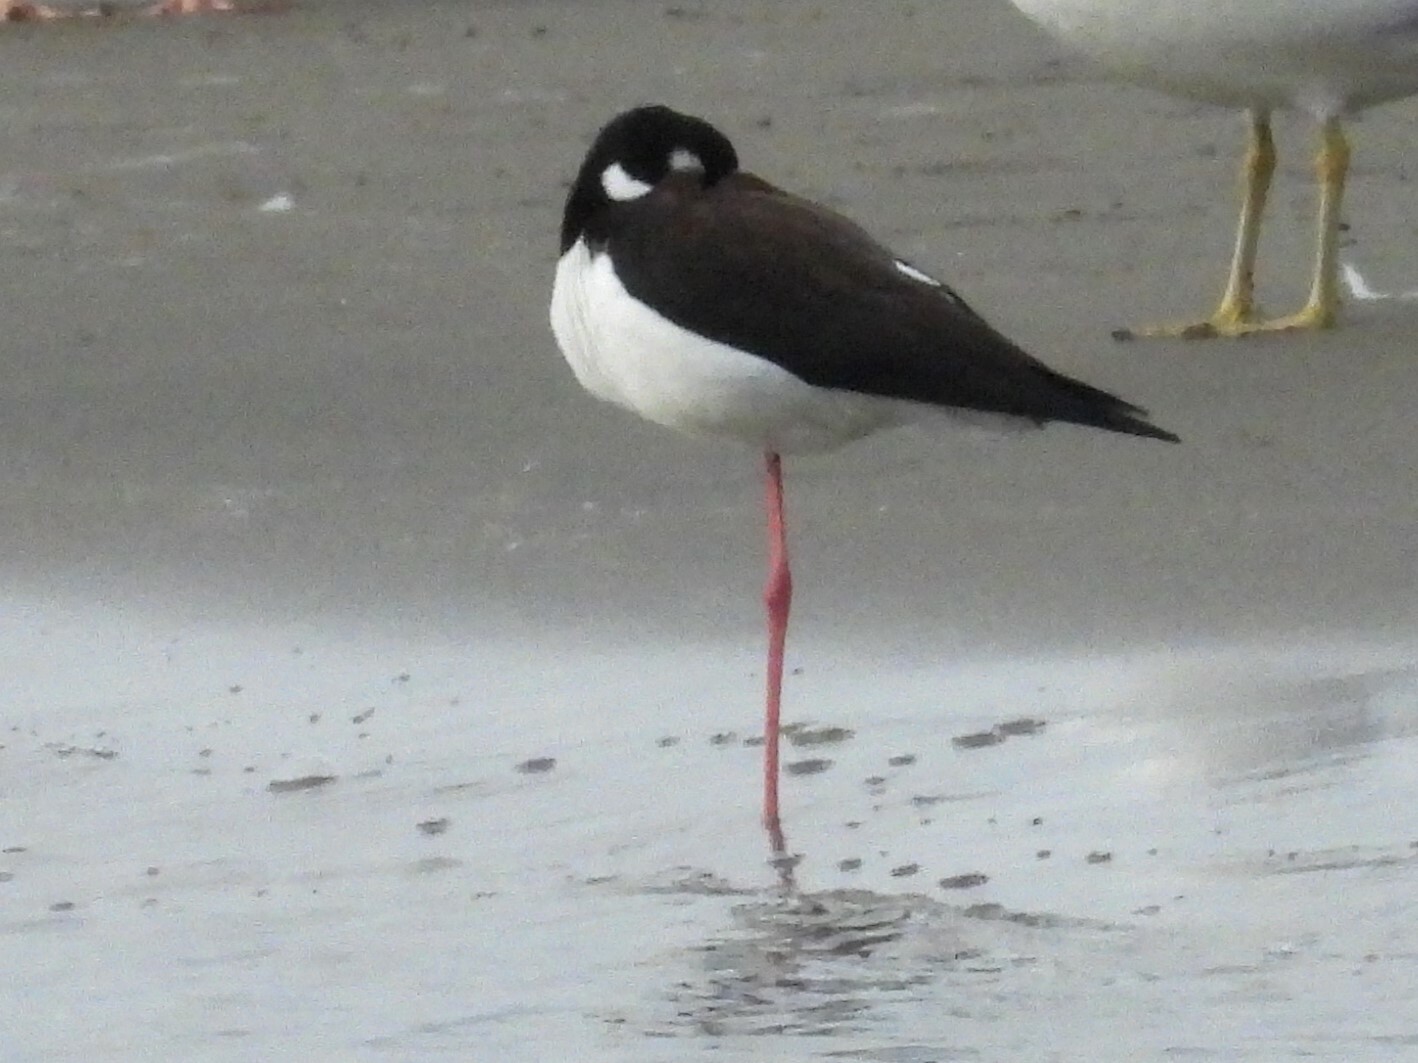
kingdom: Animalia
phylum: Chordata
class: Aves
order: Charadriiformes
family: Recurvirostridae
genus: Himantopus
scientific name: Himantopus mexicanus
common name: Black-necked stilt
